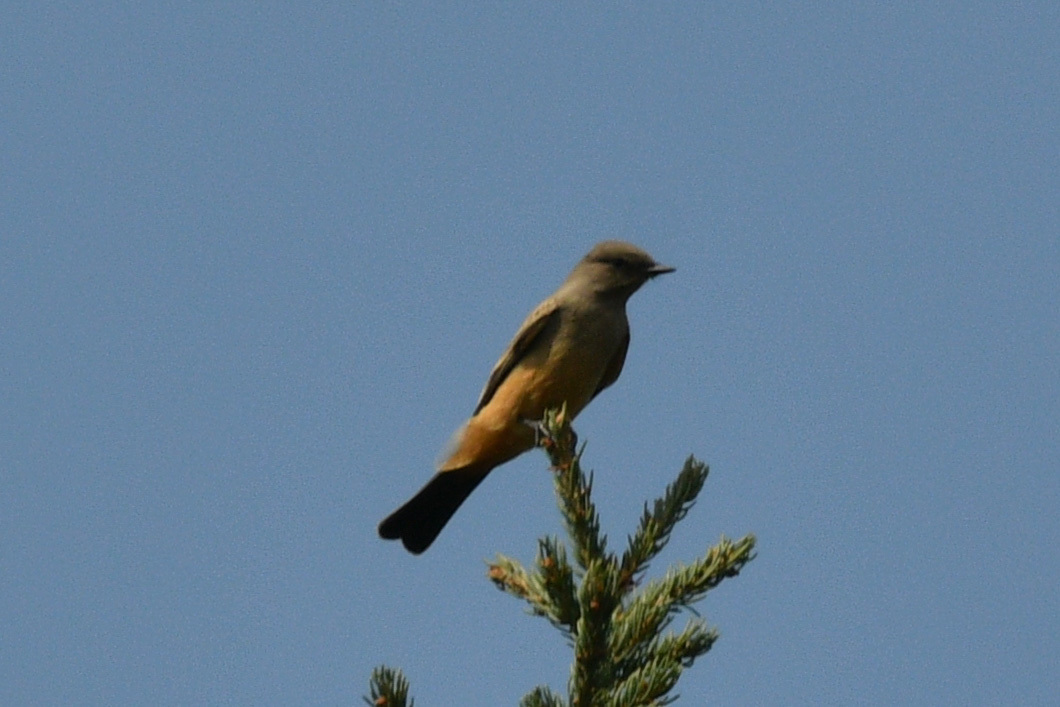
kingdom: Animalia
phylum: Chordata
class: Aves
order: Passeriformes
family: Tyrannidae
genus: Sayornis
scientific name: Sayornis saya
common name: Say's phoebe
